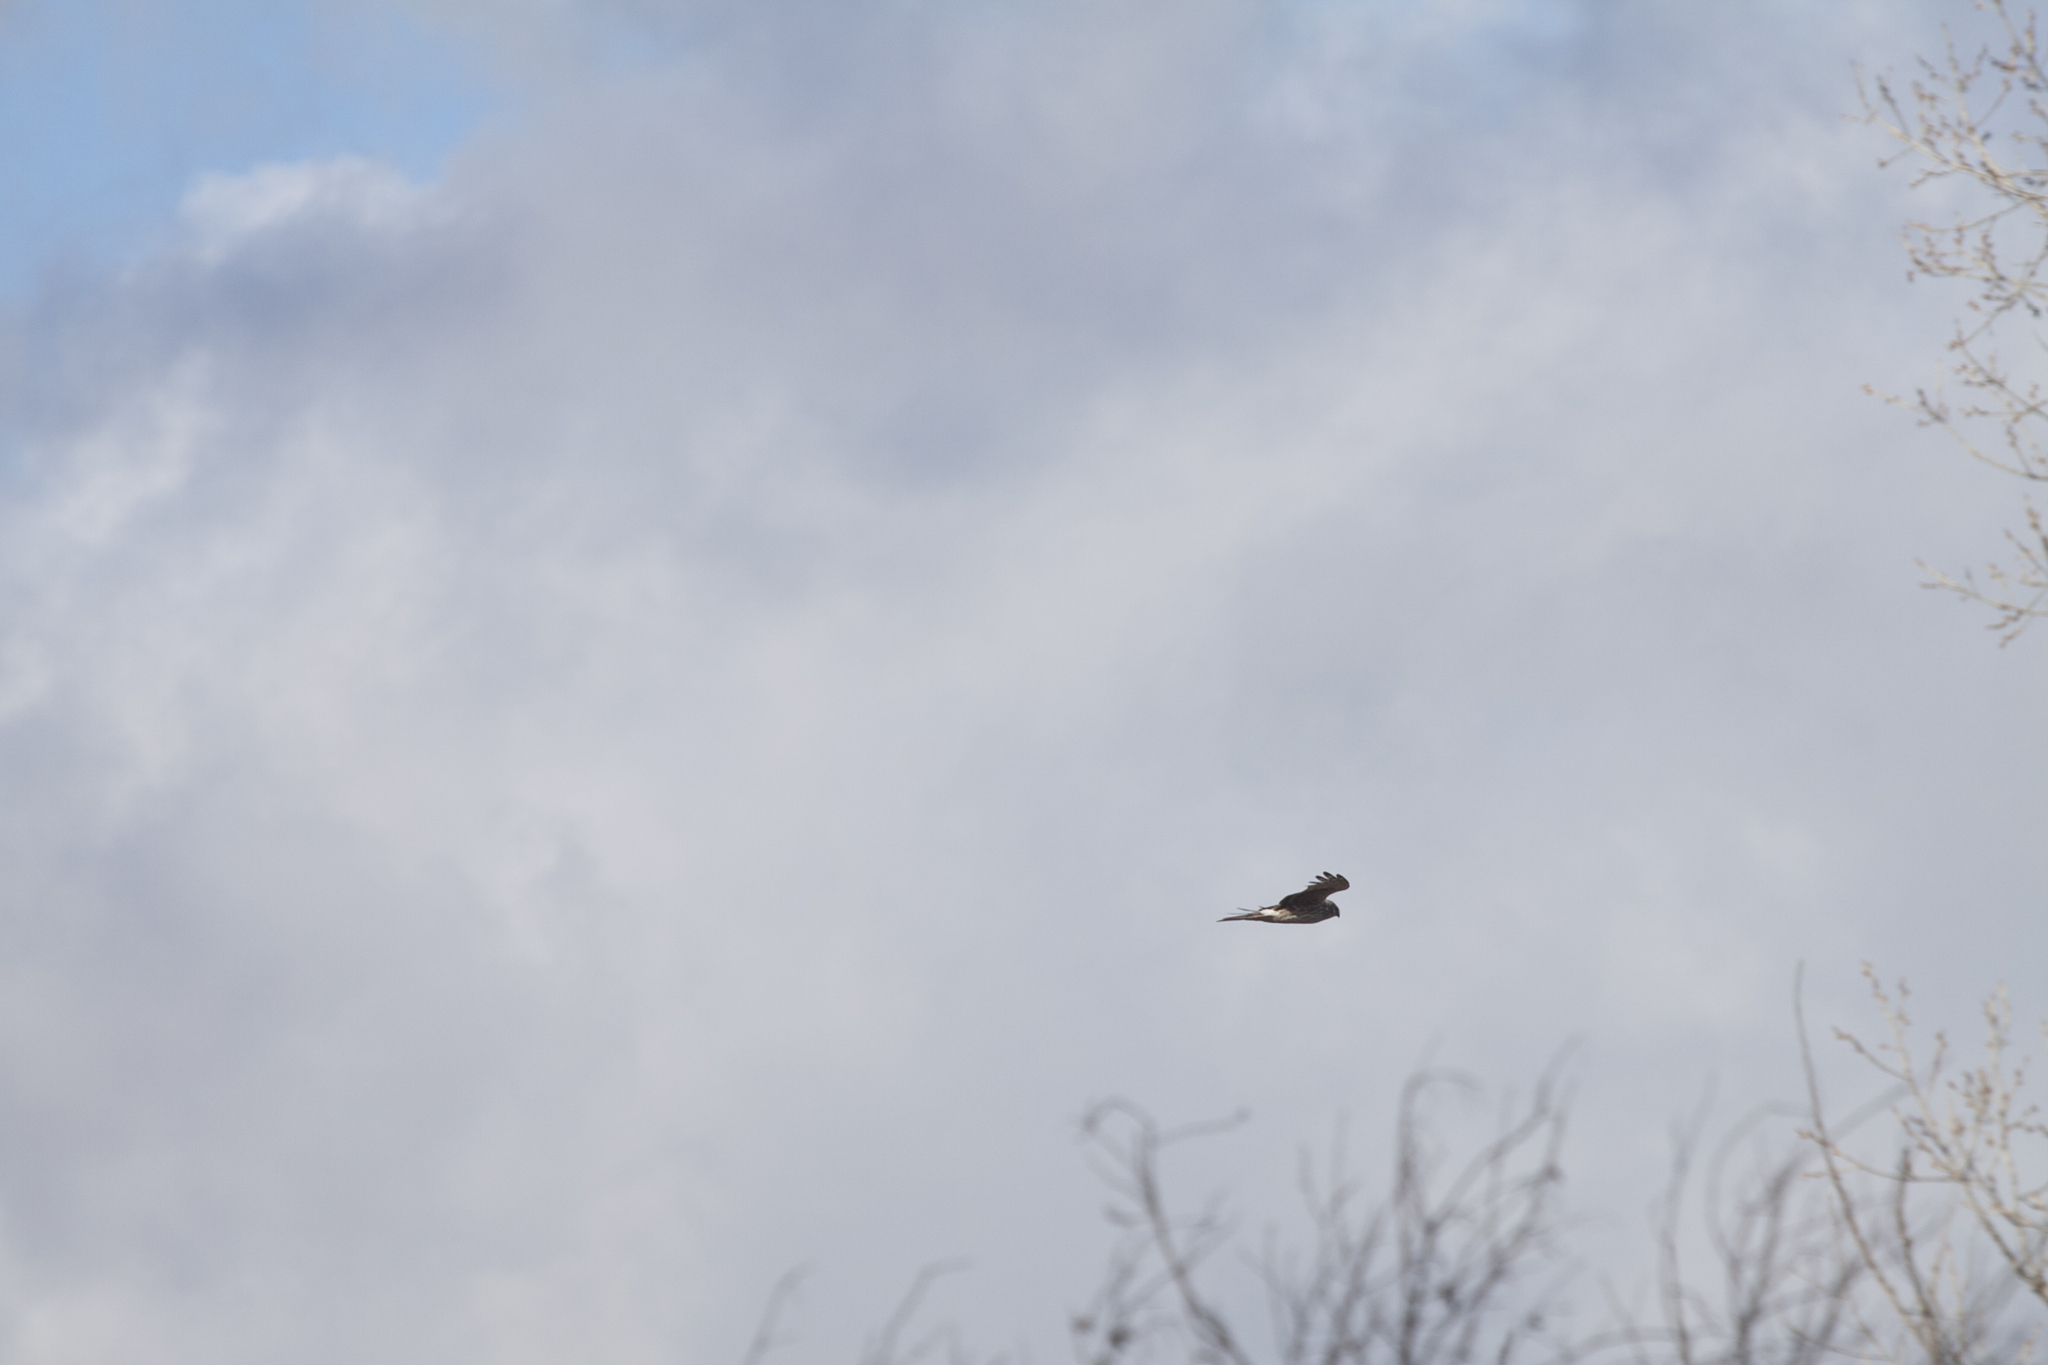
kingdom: Animalia
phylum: Chordata
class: Aves
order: Accipitriformes
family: Accipitridae
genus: Circus
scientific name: Circus cyaneus
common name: Hen harrier
